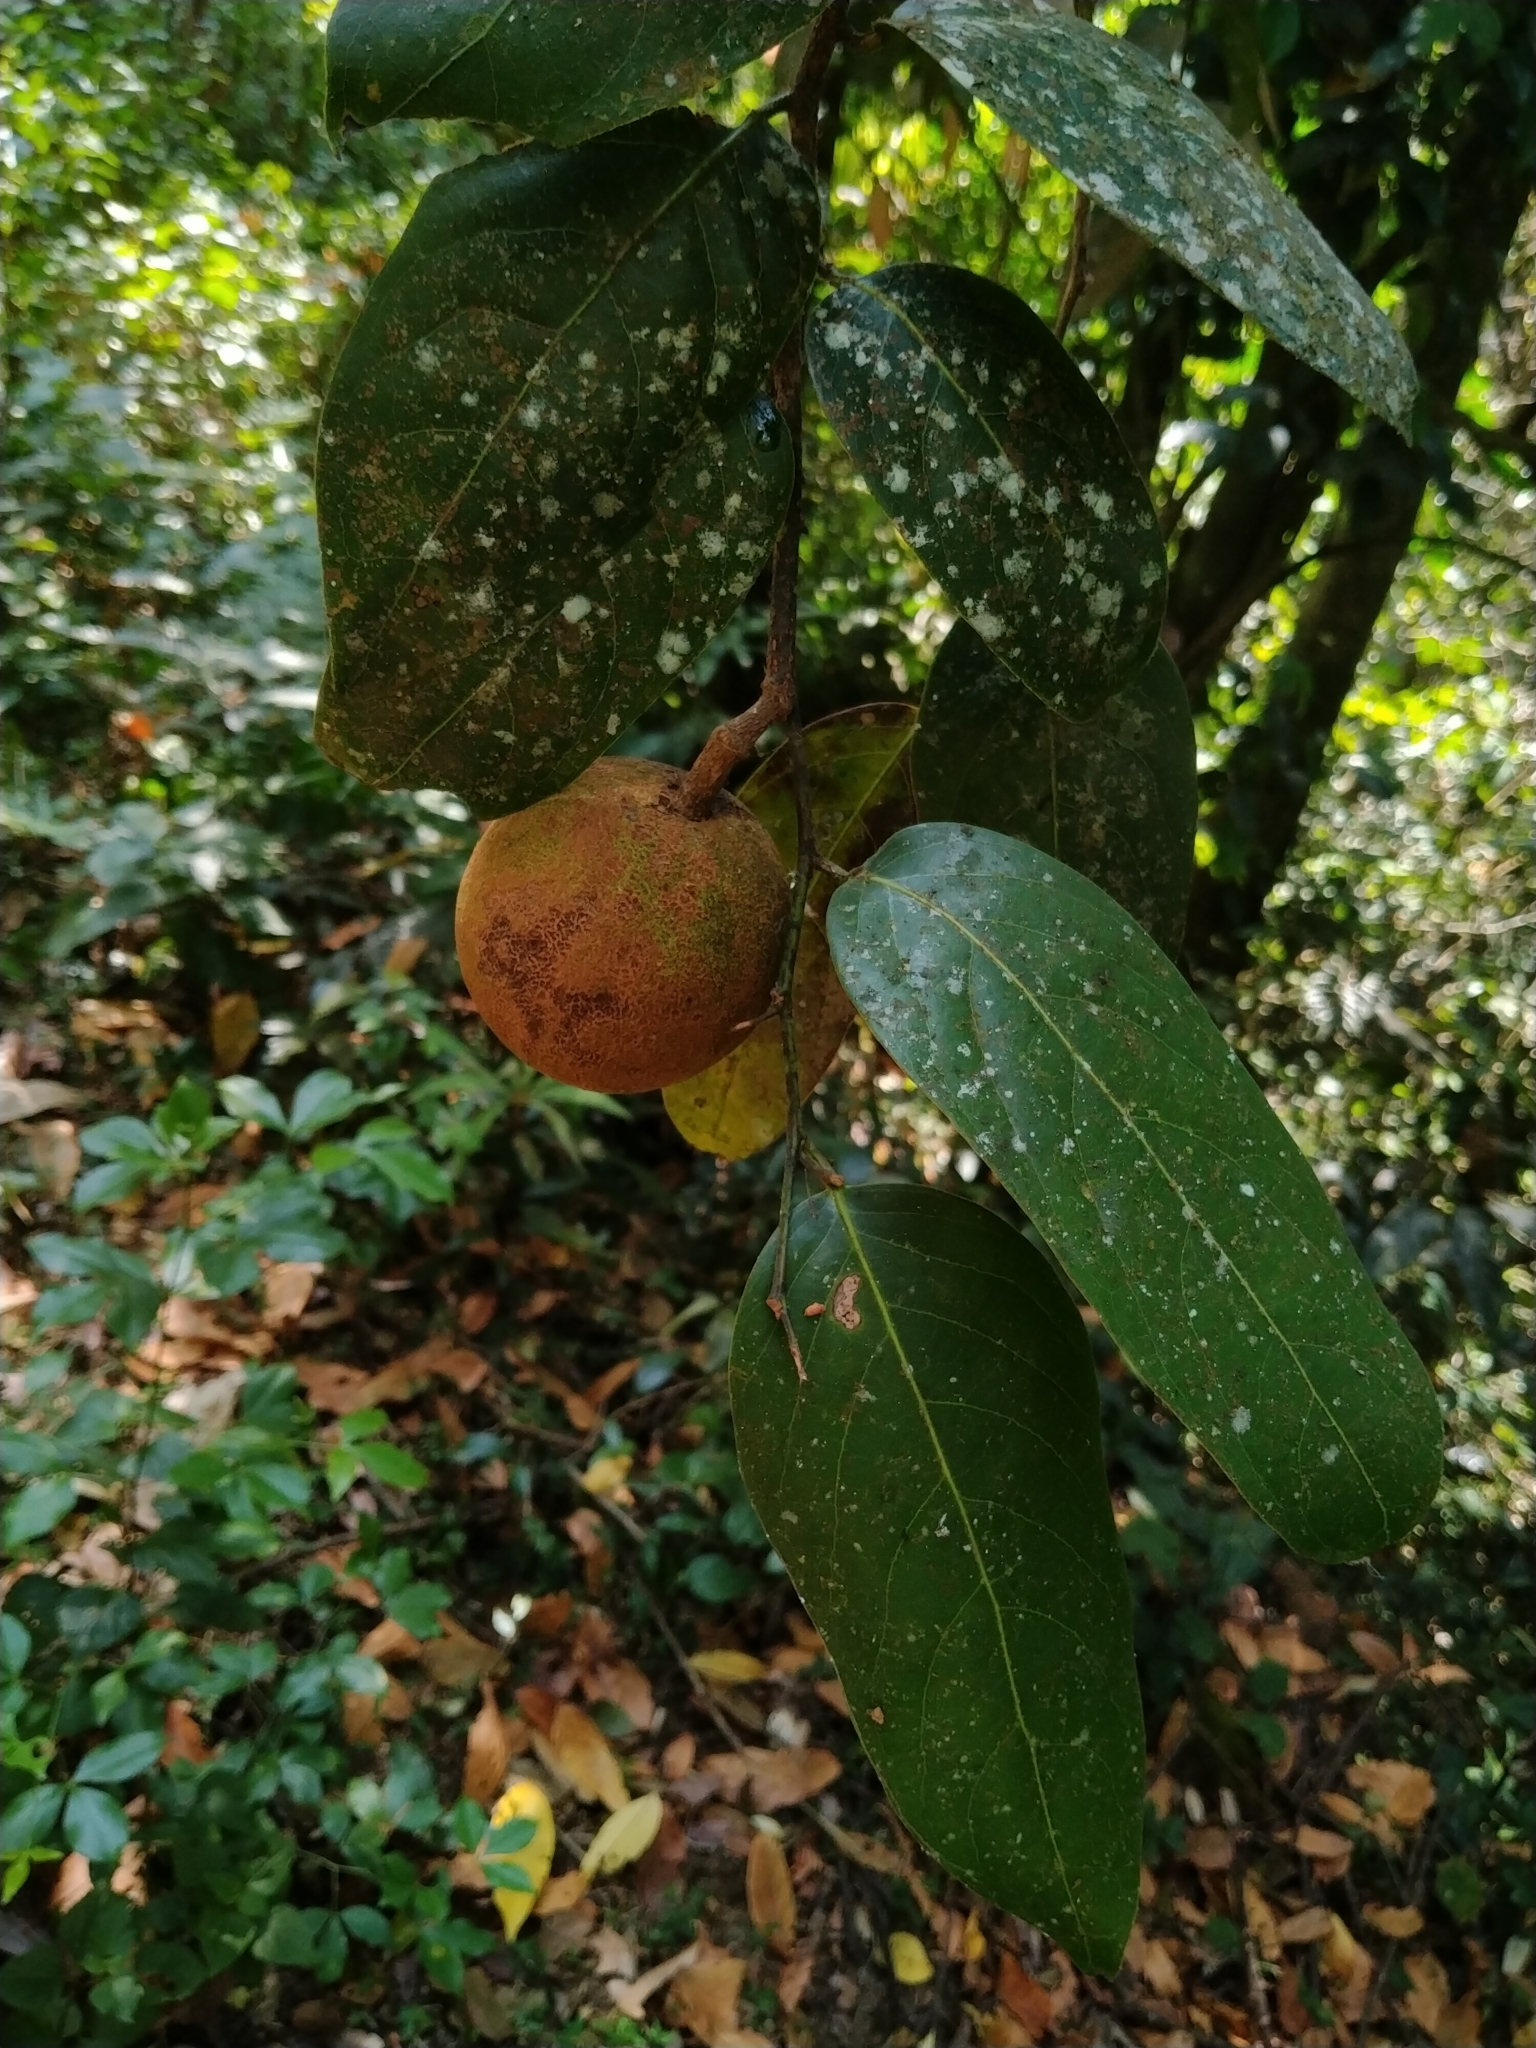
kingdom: Plantae
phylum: Tracheophyta
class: Magnoliopsida
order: Malpighiales
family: Achariaceae
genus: Hydnocarpus
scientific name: Hydnocarpus alpinus
